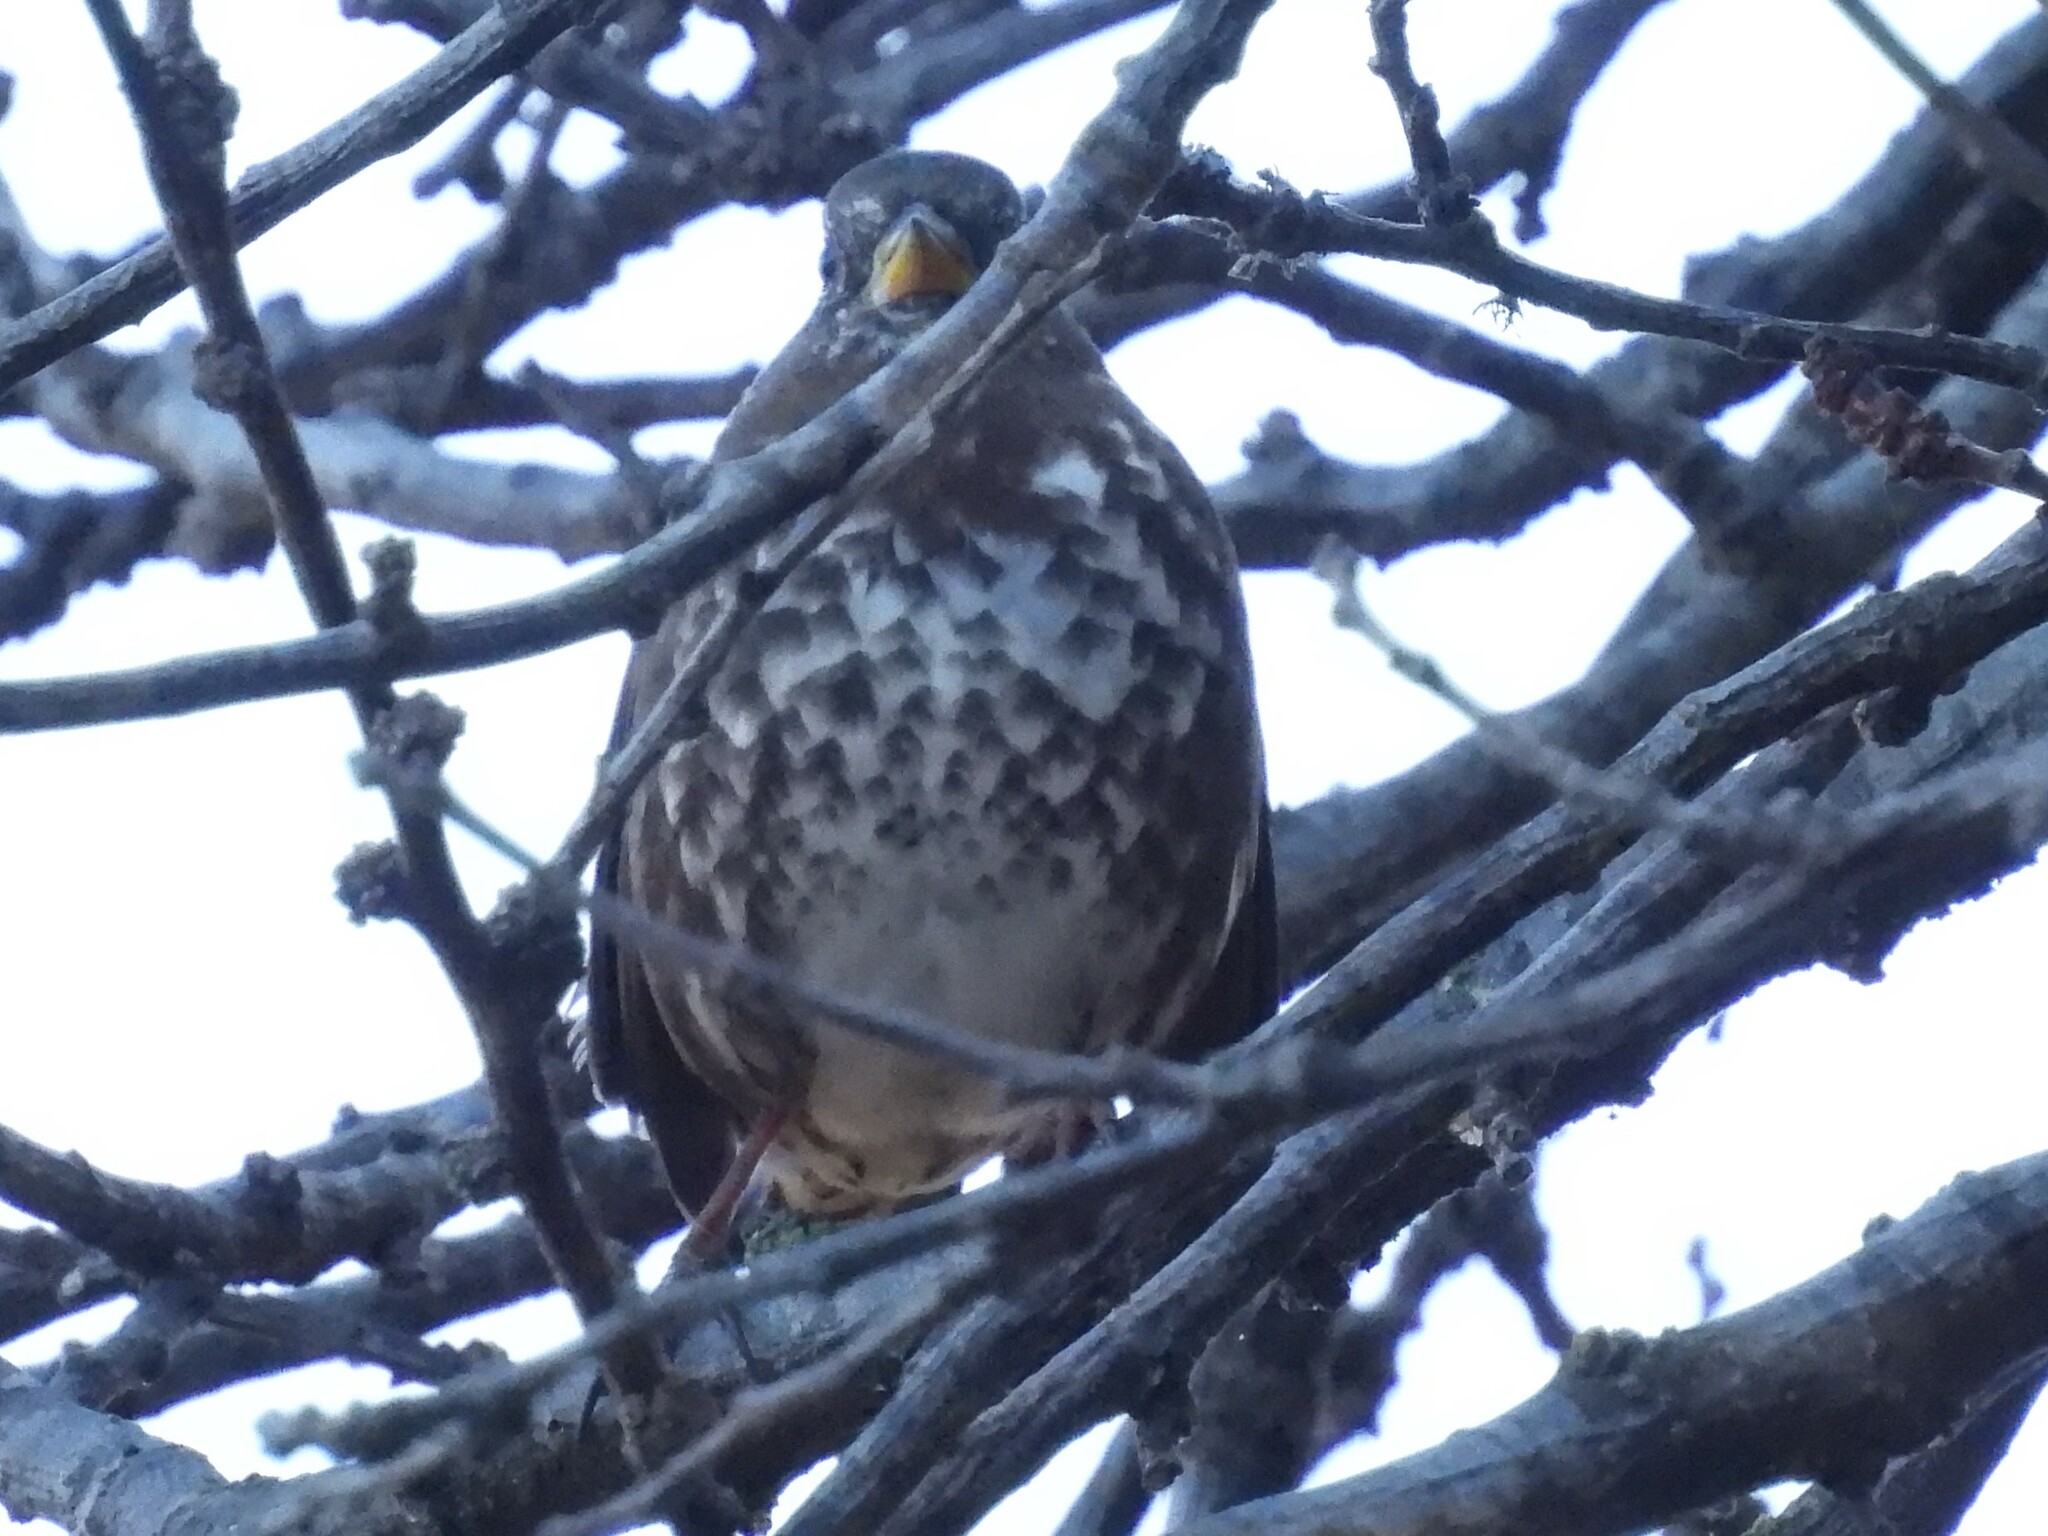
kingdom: Animalia
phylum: Chordata
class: Aves
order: Passeriformes
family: Passerellidae
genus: Passerella
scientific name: Passerella iliaca
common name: Fox sparrow
